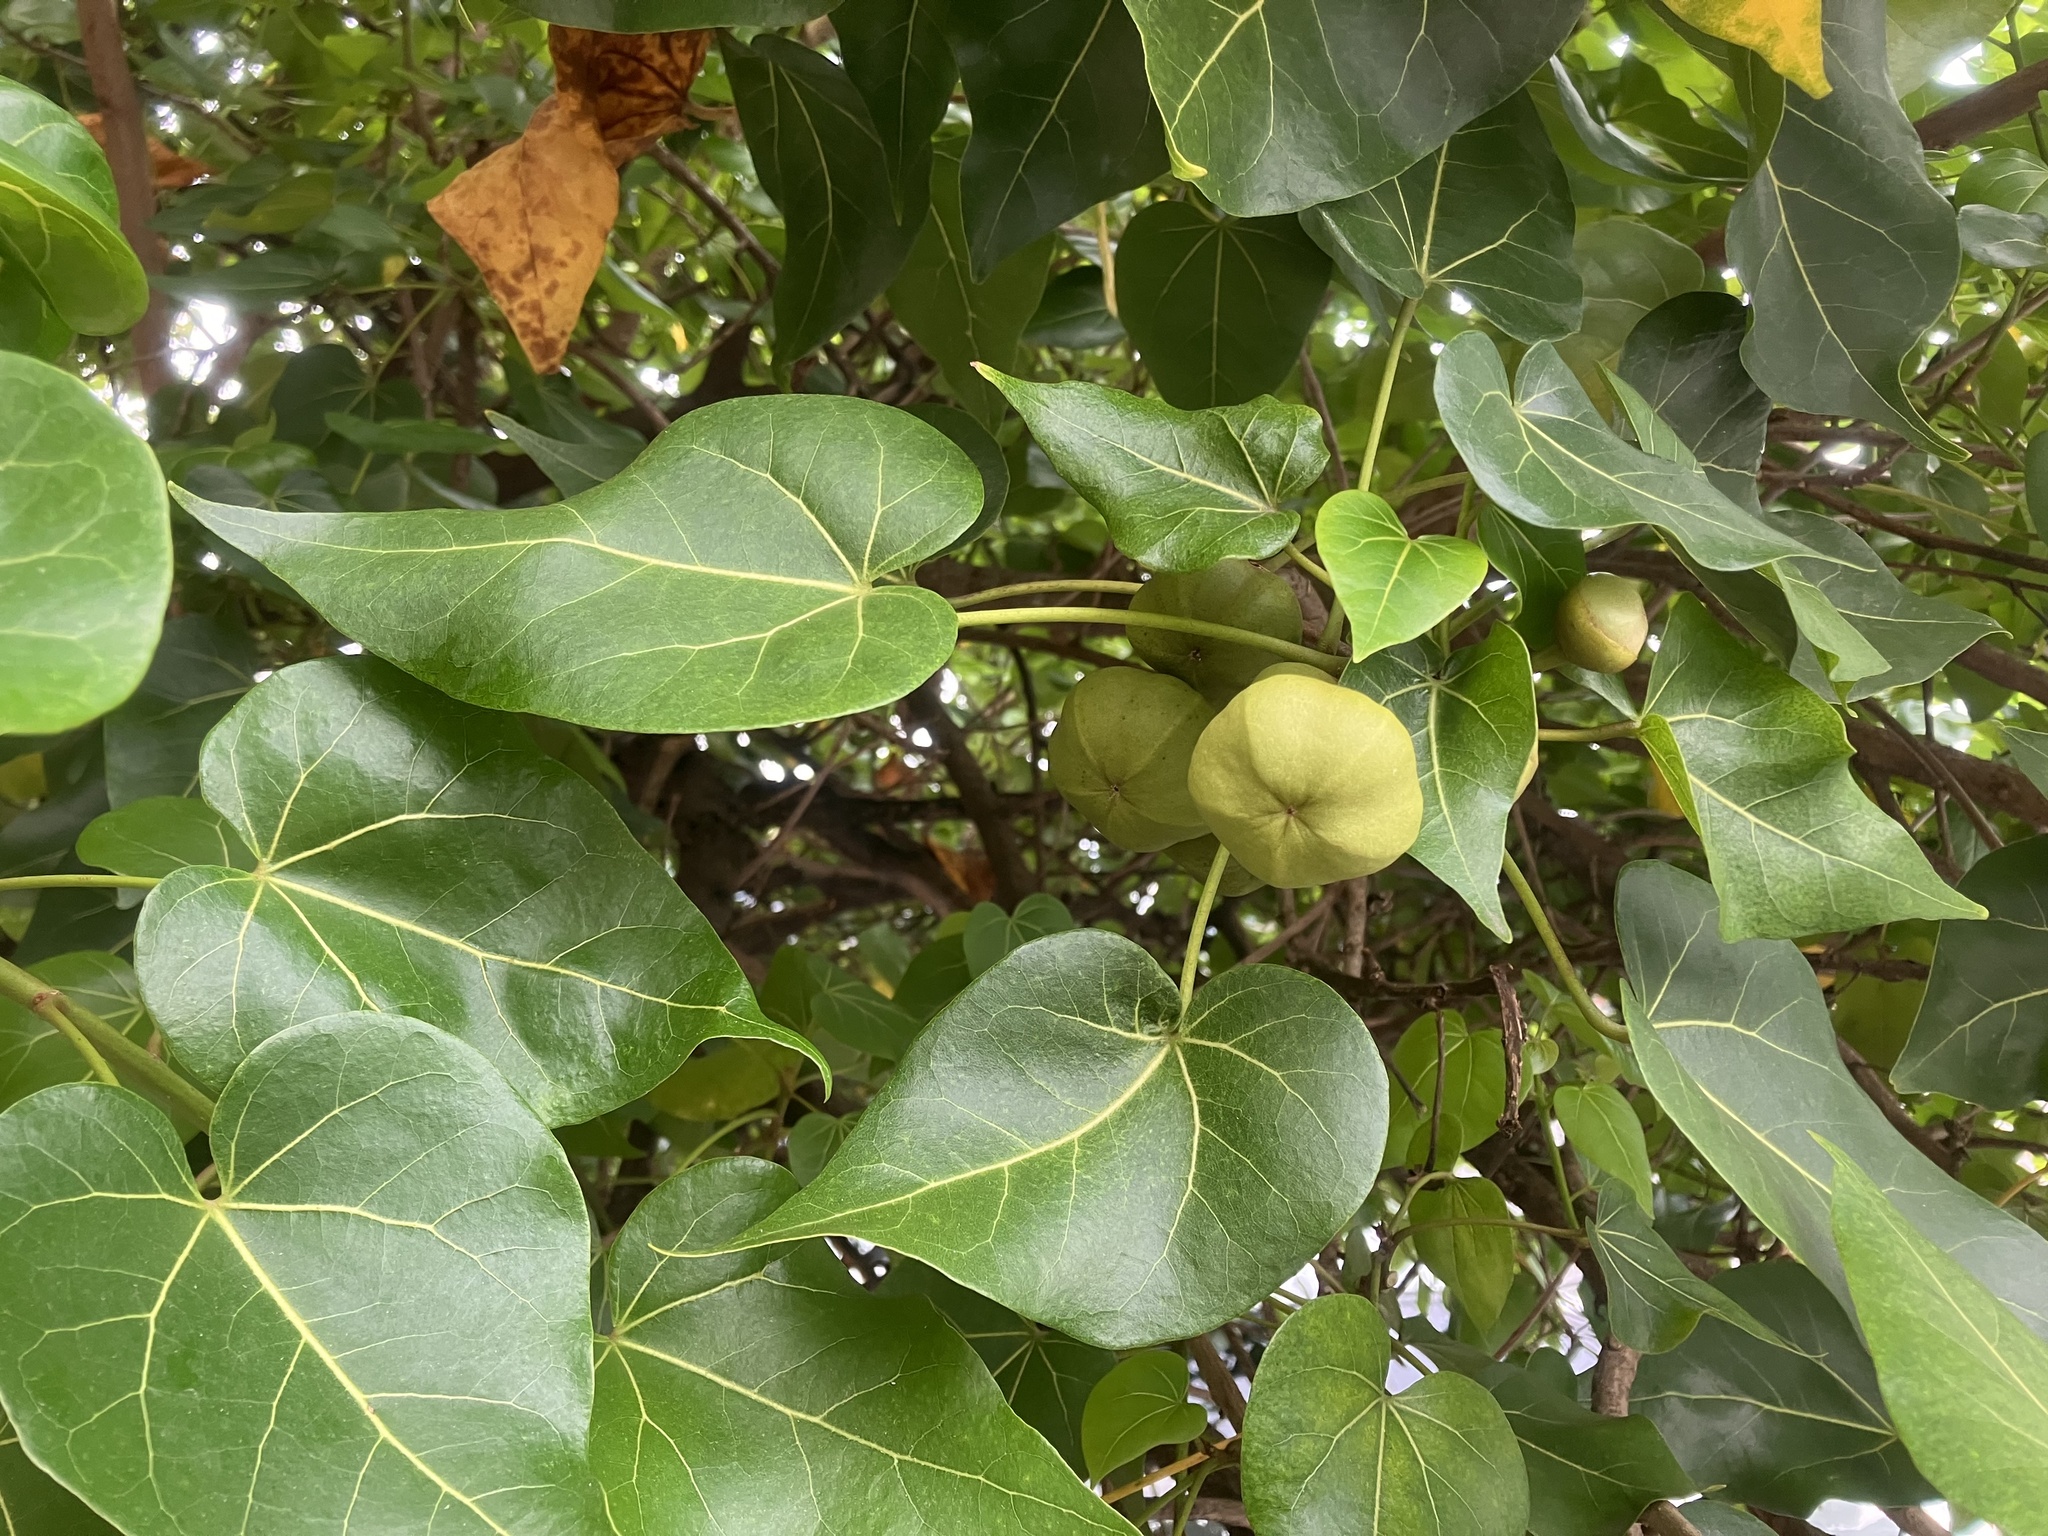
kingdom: Plantae
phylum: Tracheophyta
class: Magnoliopsida
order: Malvales
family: Malvaceae
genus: Thespesia
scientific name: Thespesia populnea
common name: Seaside mahoe
